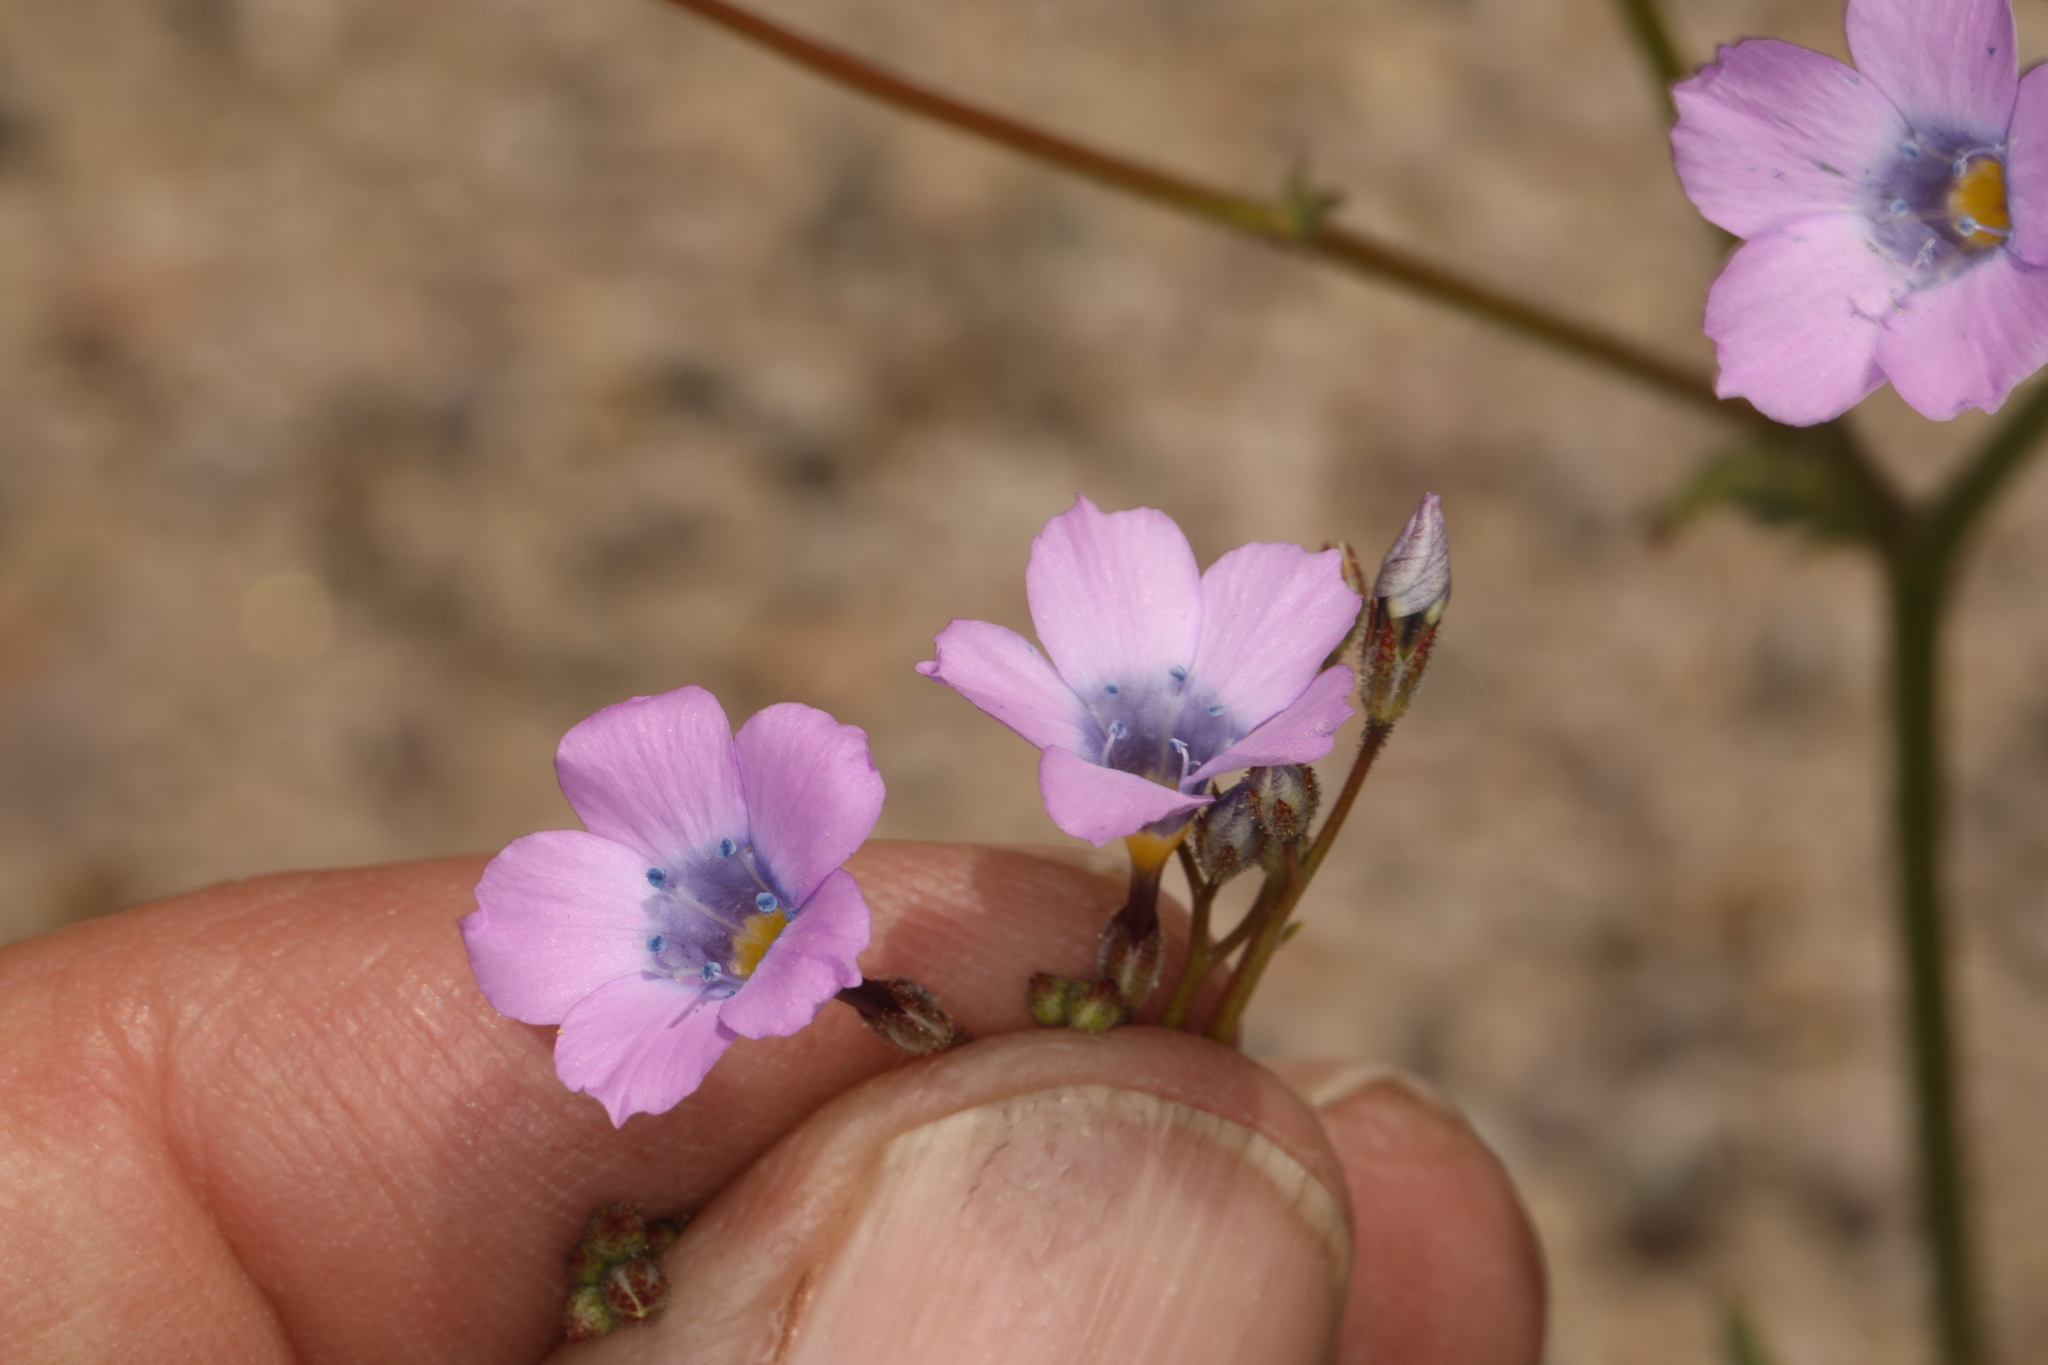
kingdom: Plantae
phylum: Tracheophyta
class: Magnoliopsida
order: Ericales
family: Polemoniaceae
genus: Gilia
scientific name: Gilia cana
